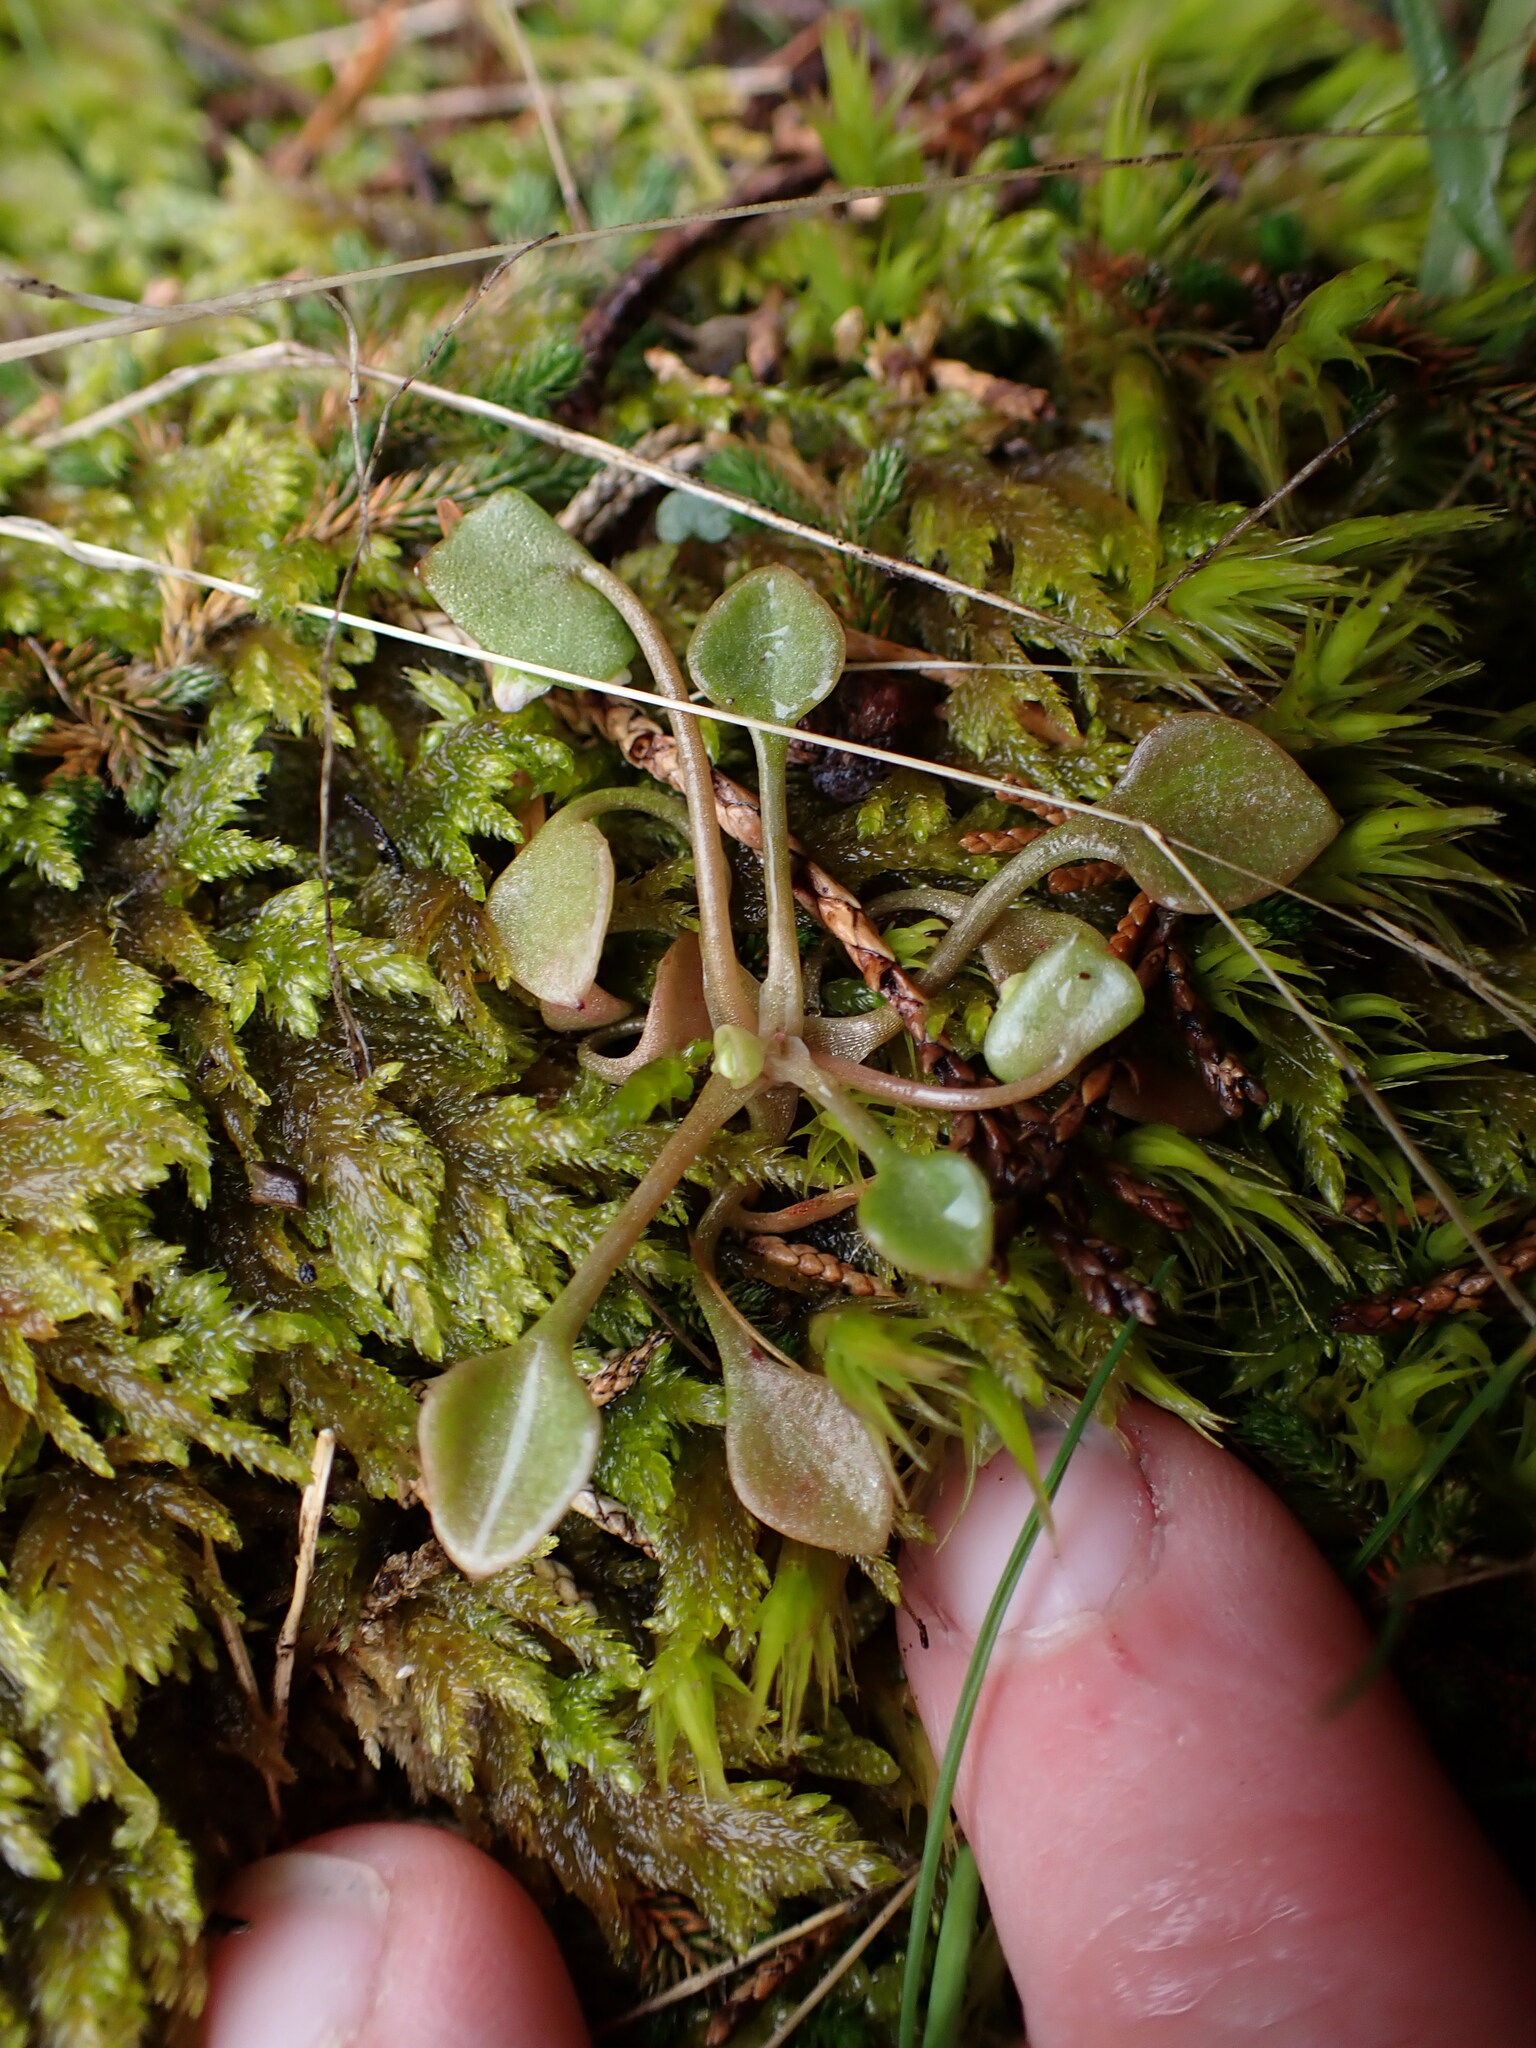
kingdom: Plantae
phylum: Tracheophyta
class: Magnoliopsida
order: Caryophyllales
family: Montiaceae
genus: Claytonia
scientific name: Claytonia rubra
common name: Erubescent miner's-lettuce
